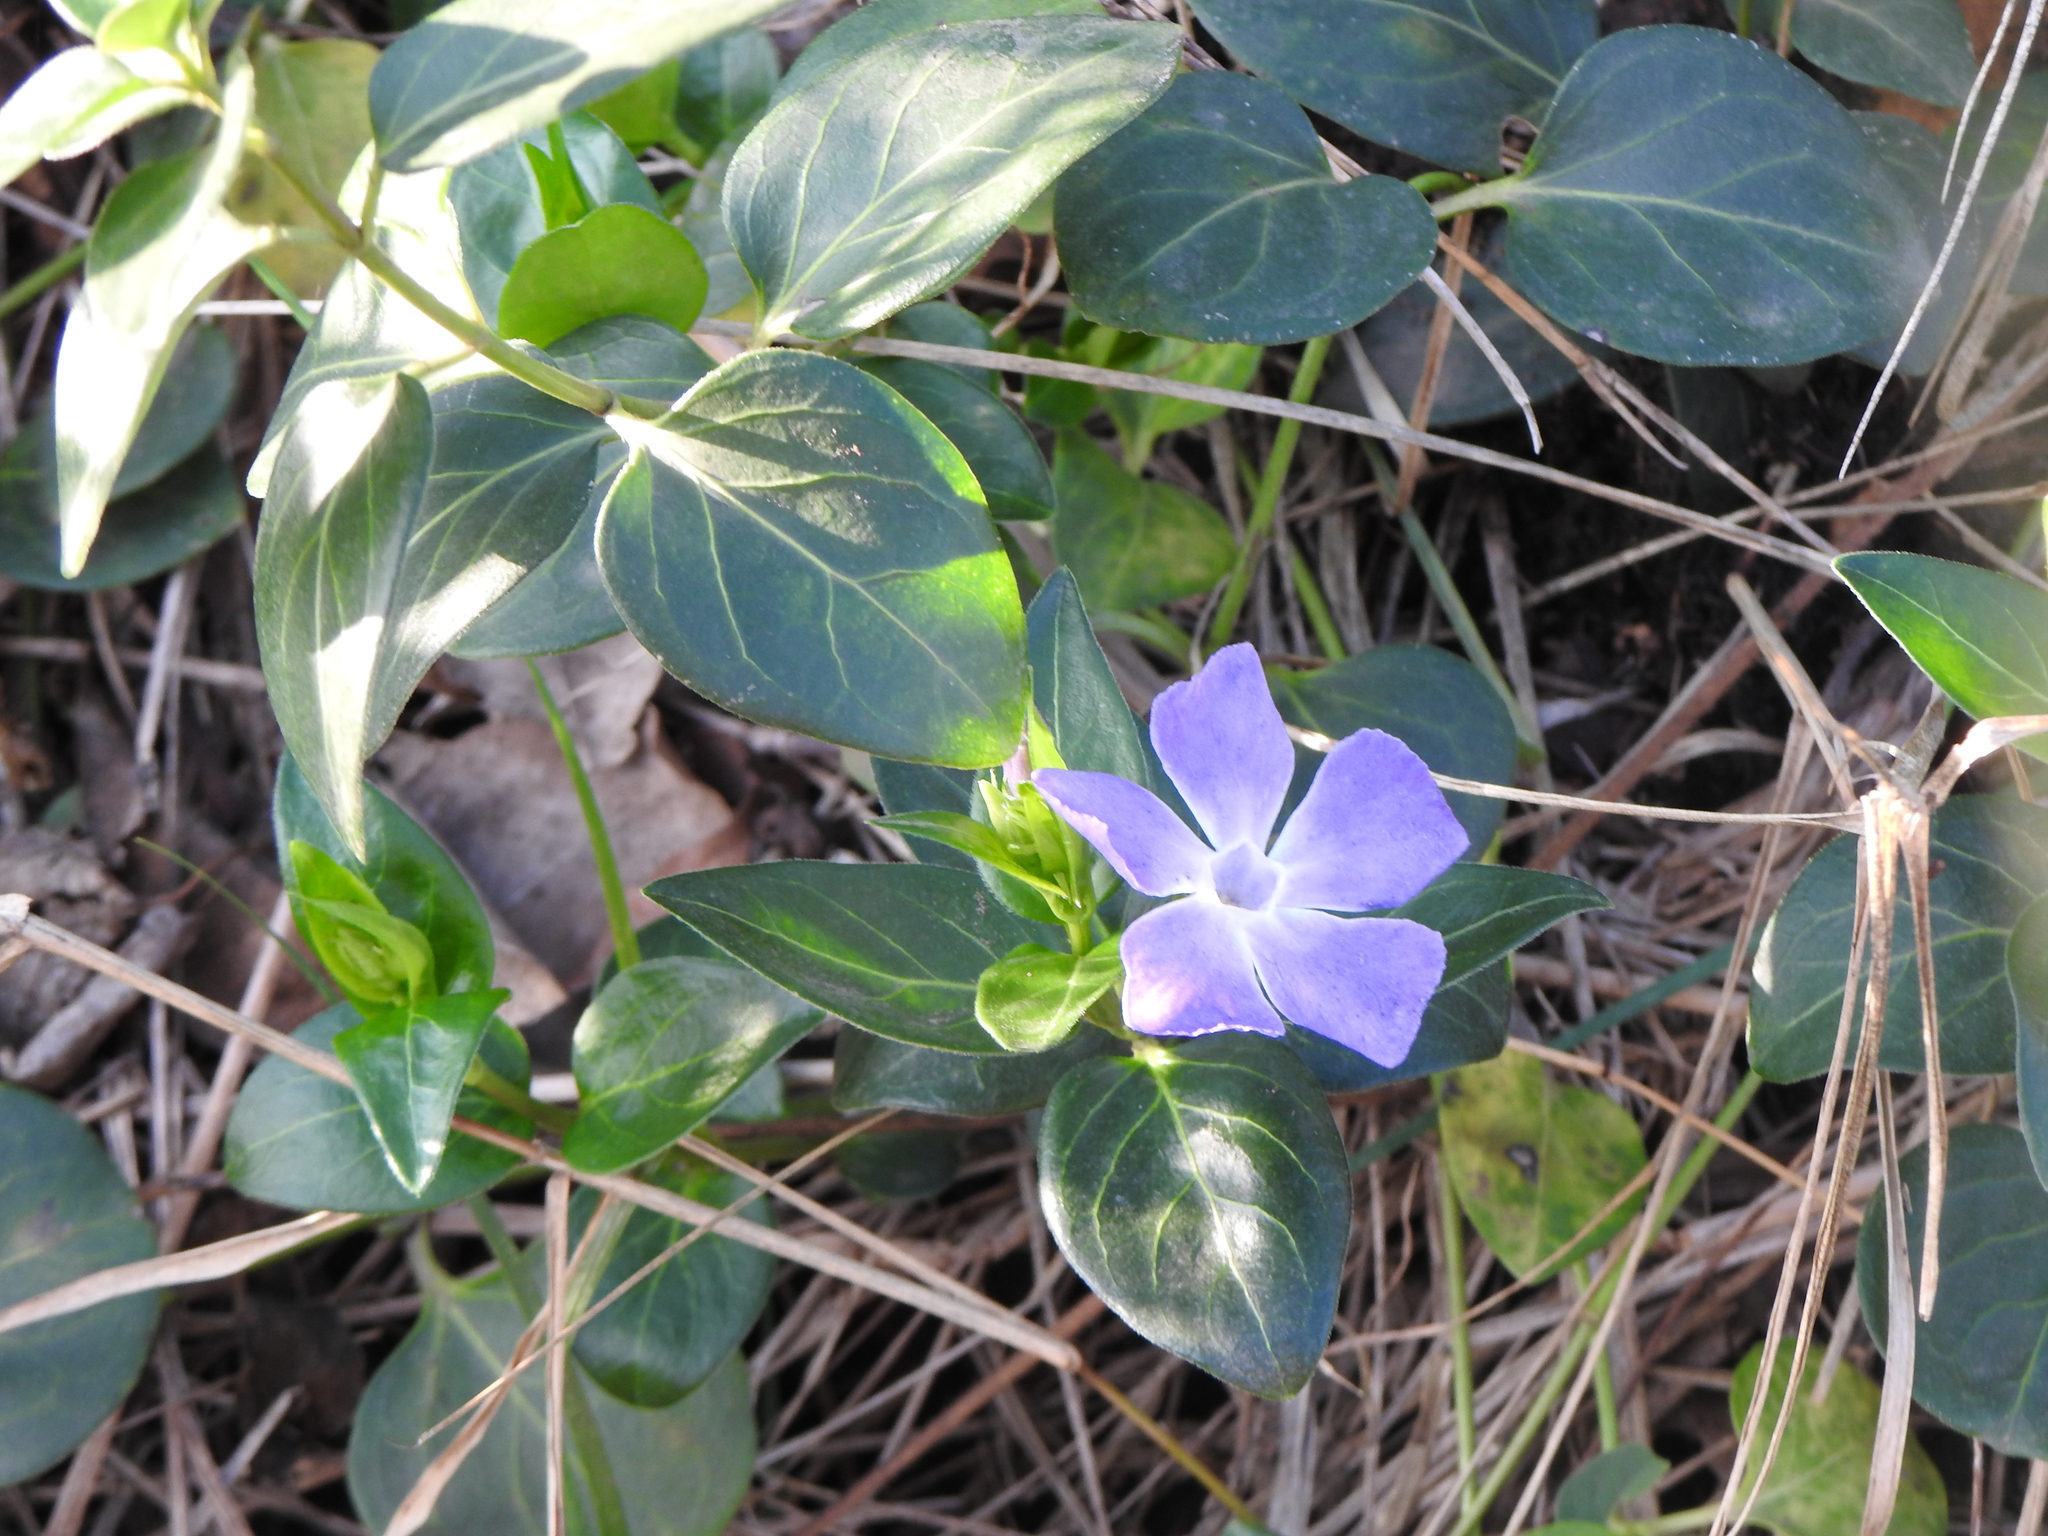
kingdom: Plantae
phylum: Tracheophyta
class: Magnoliopsida
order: Gentianales
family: Apocynaceae
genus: Vinca
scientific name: Vinca major
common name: Greater periwinkle
